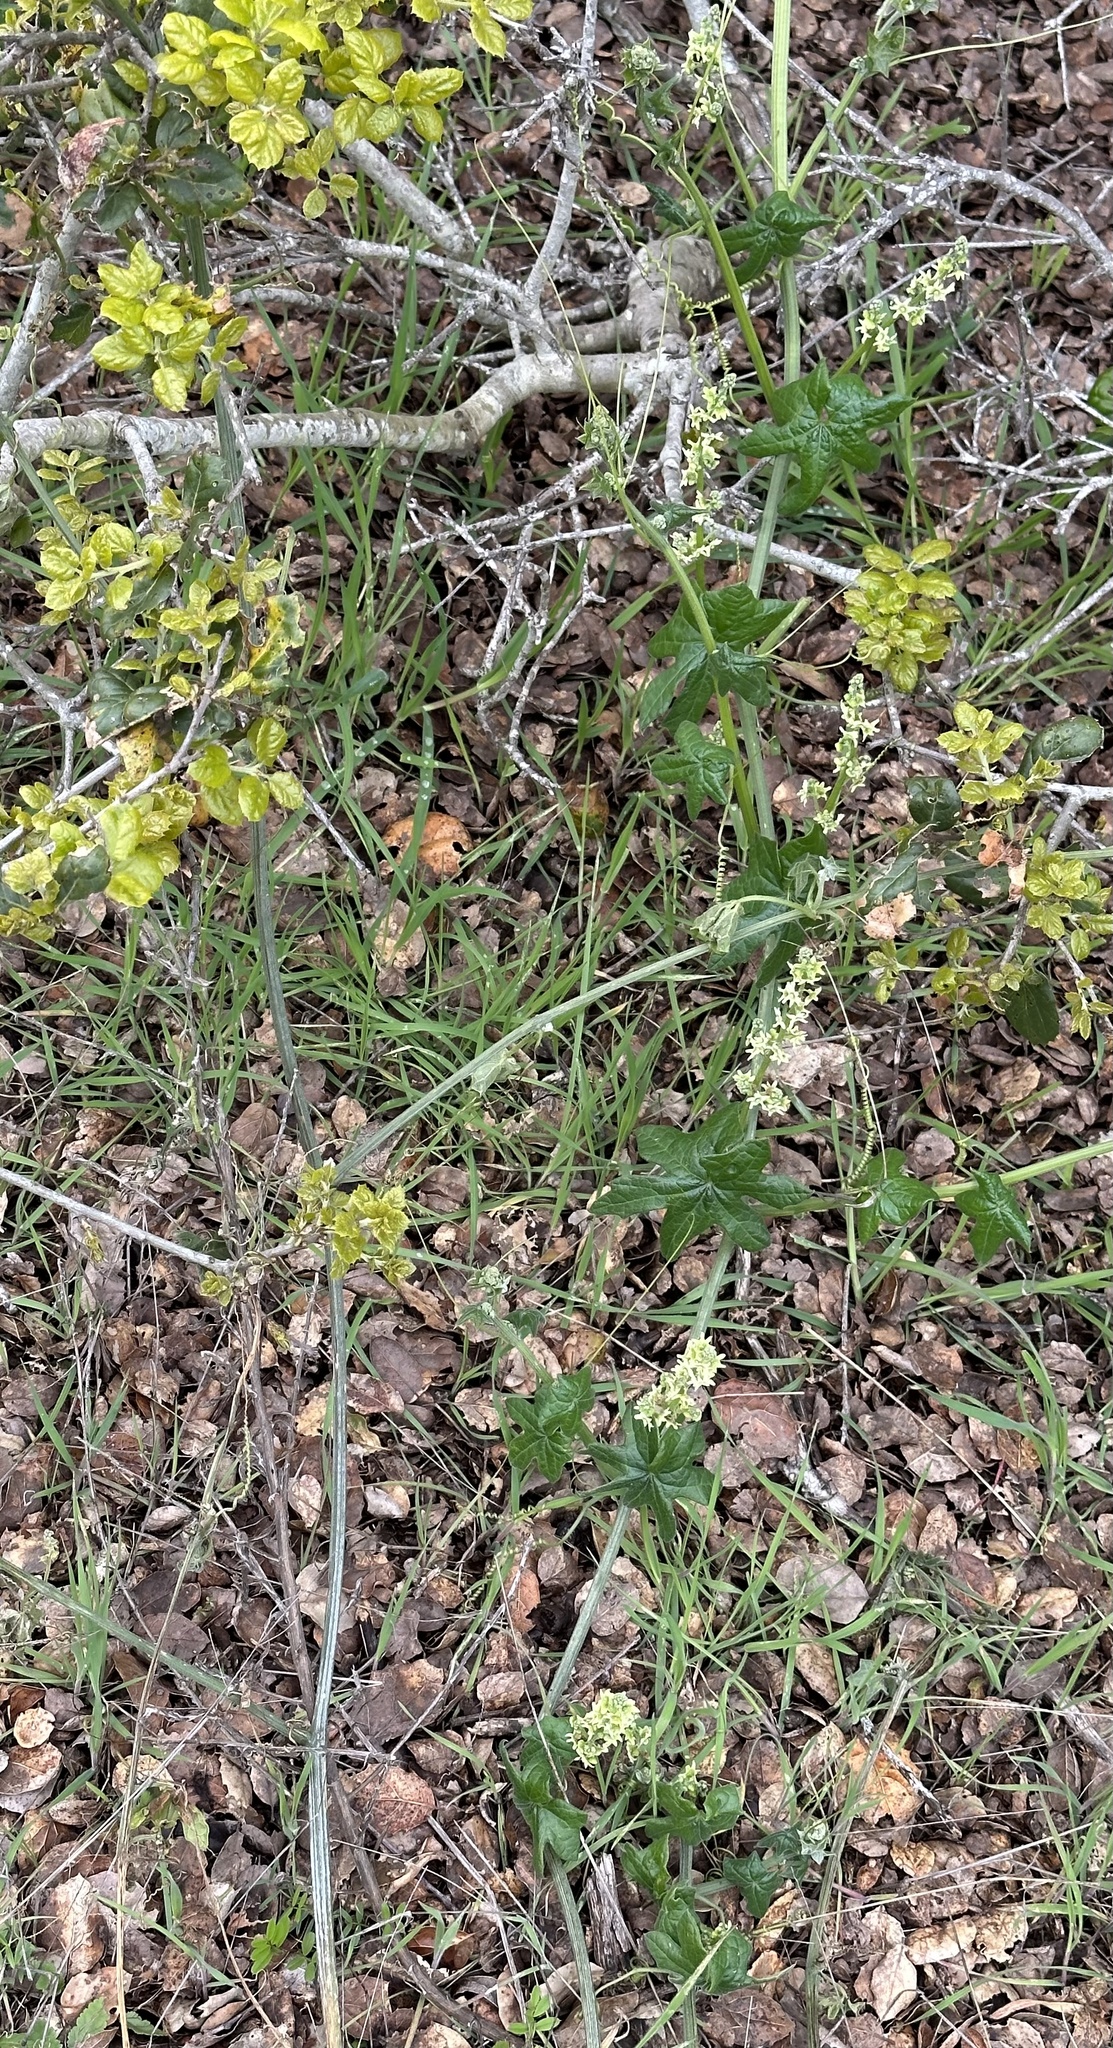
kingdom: Plantae
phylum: Tracheophyta
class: Magnoliopsida
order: Cucurbitales
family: Cucurbitaceae
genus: Marah
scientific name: Marah fabacea
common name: California manroot
